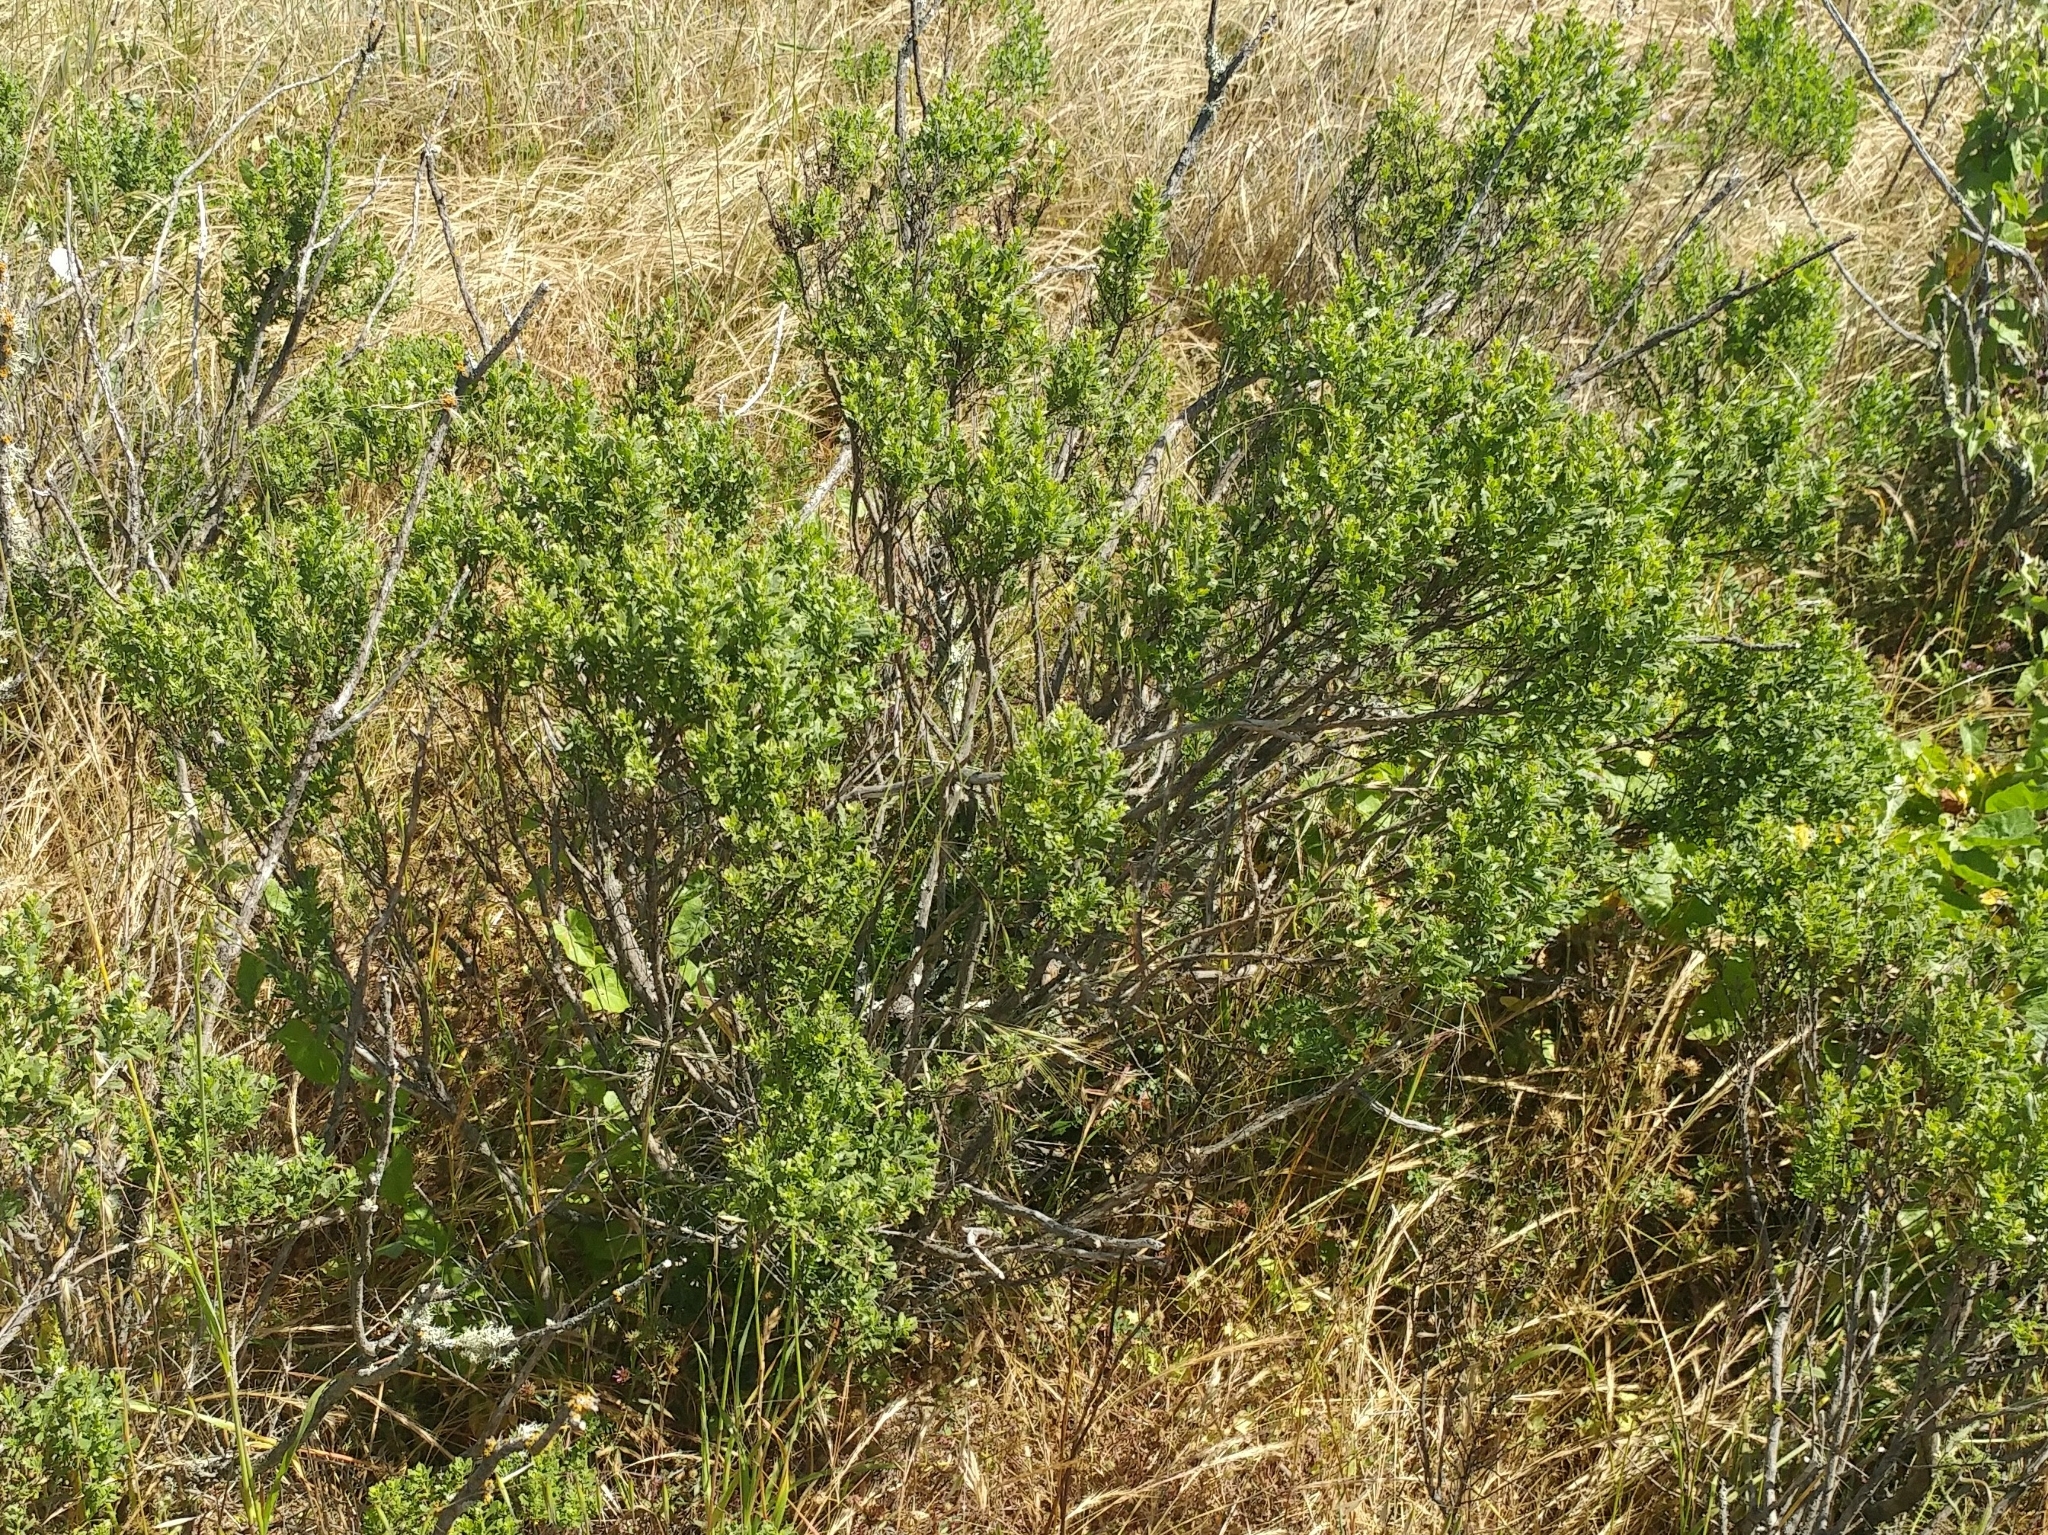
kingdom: Plantae
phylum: Tracheophyta
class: Magnoliopsida
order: Asterales
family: Asteraceae
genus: Baccharis
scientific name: Baccharis pilularis
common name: Coyotebrush
